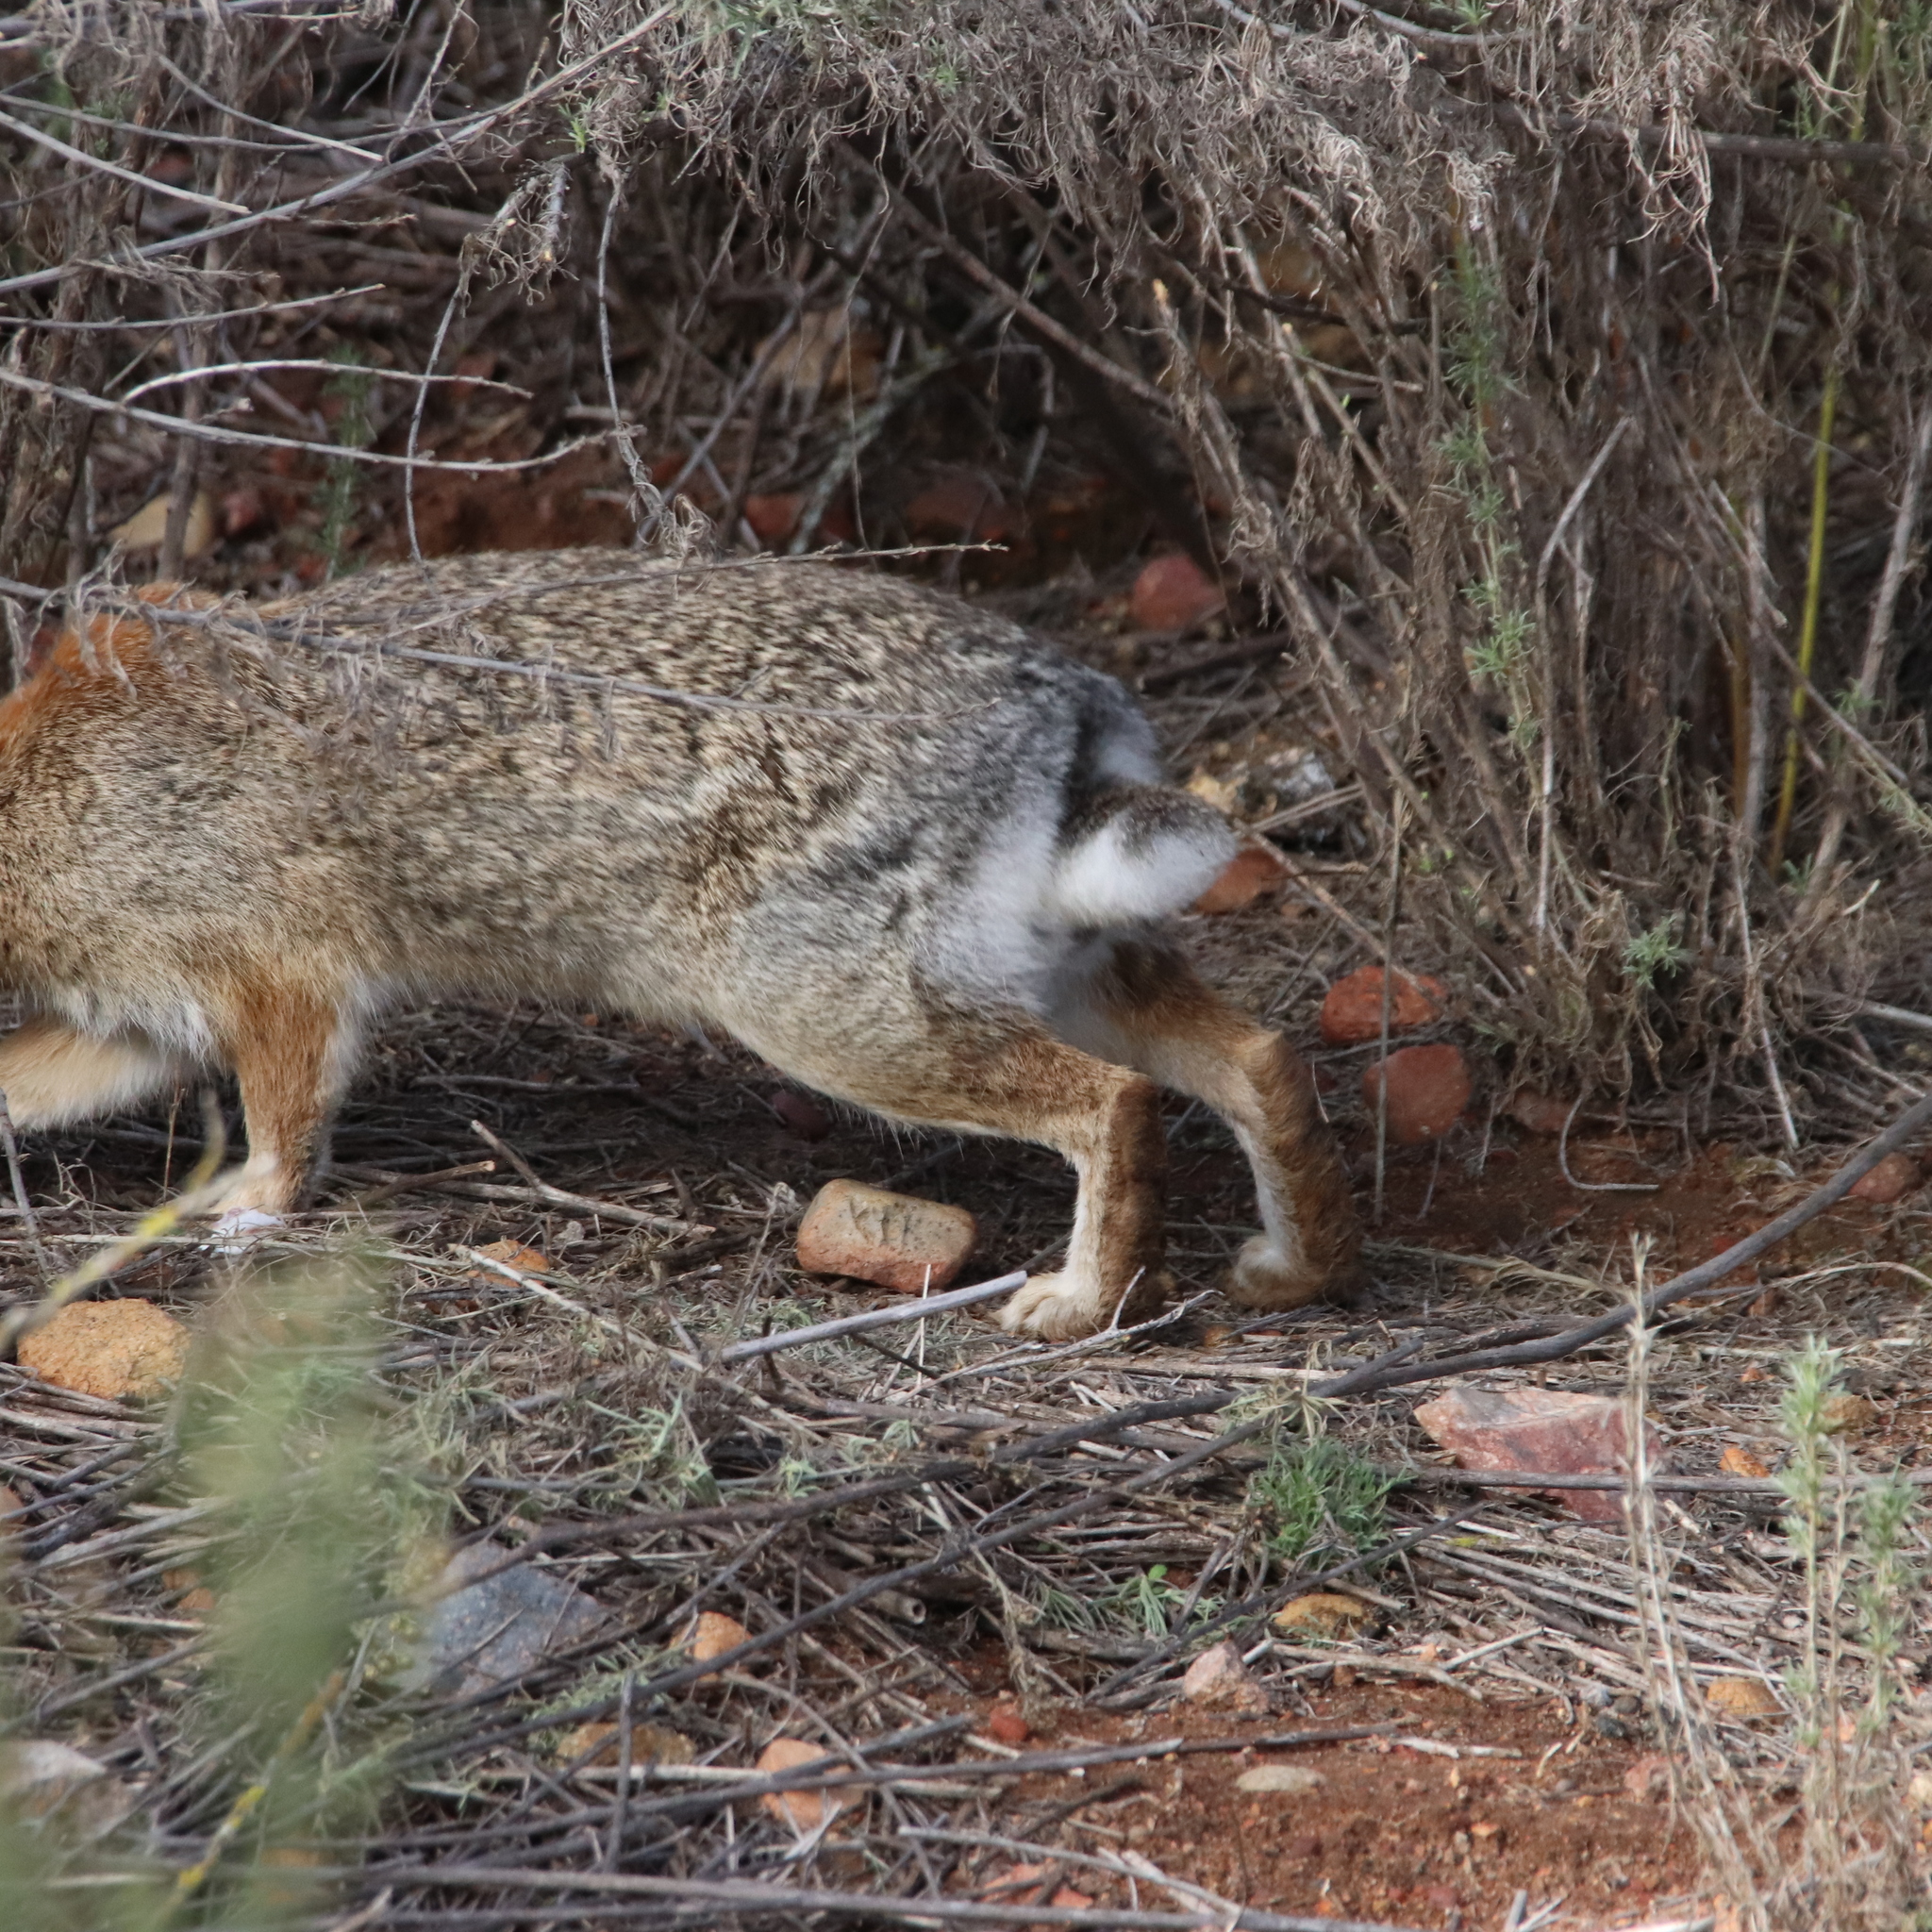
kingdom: Animalia
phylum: Chordata
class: Mammalia
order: Lagomorpha
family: Leporidae
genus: Sylvilagus
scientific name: Sylvilagus audubonii
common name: Desert cottontail
